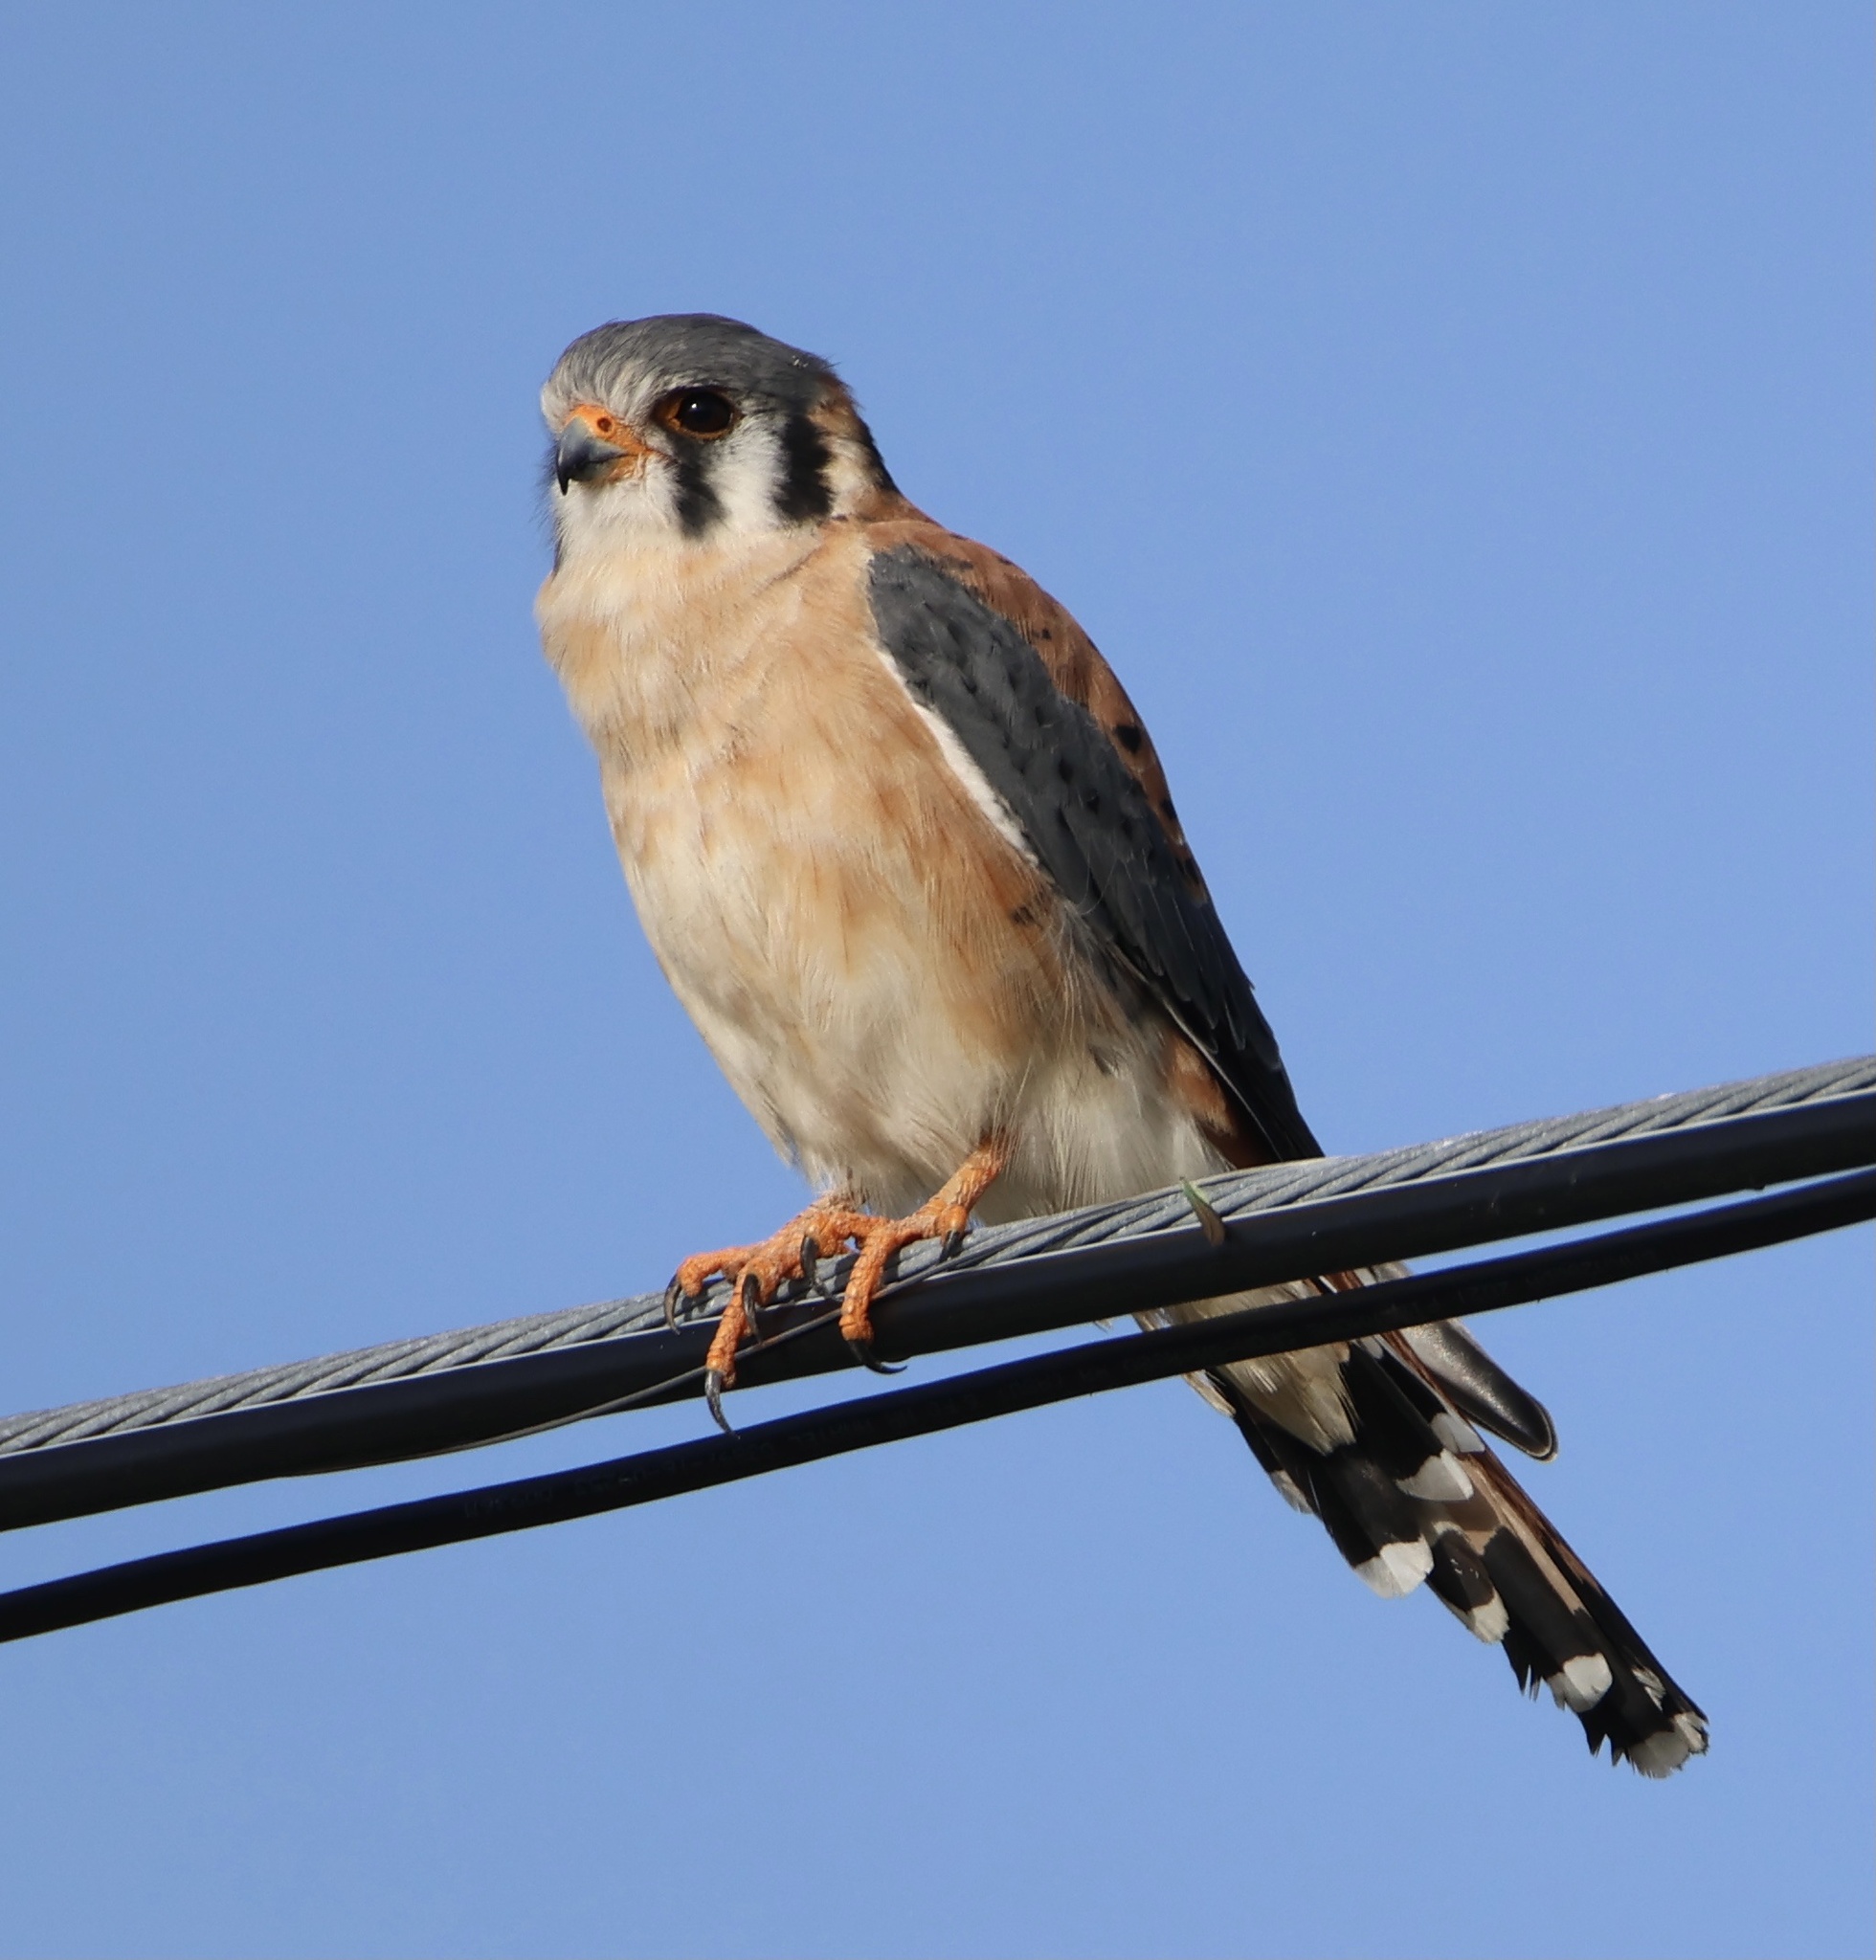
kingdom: Animalia
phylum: Chordata
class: Aves
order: Falconiformes
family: Falconidae
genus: Falco
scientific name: Falco sparverius
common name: American kestrel
